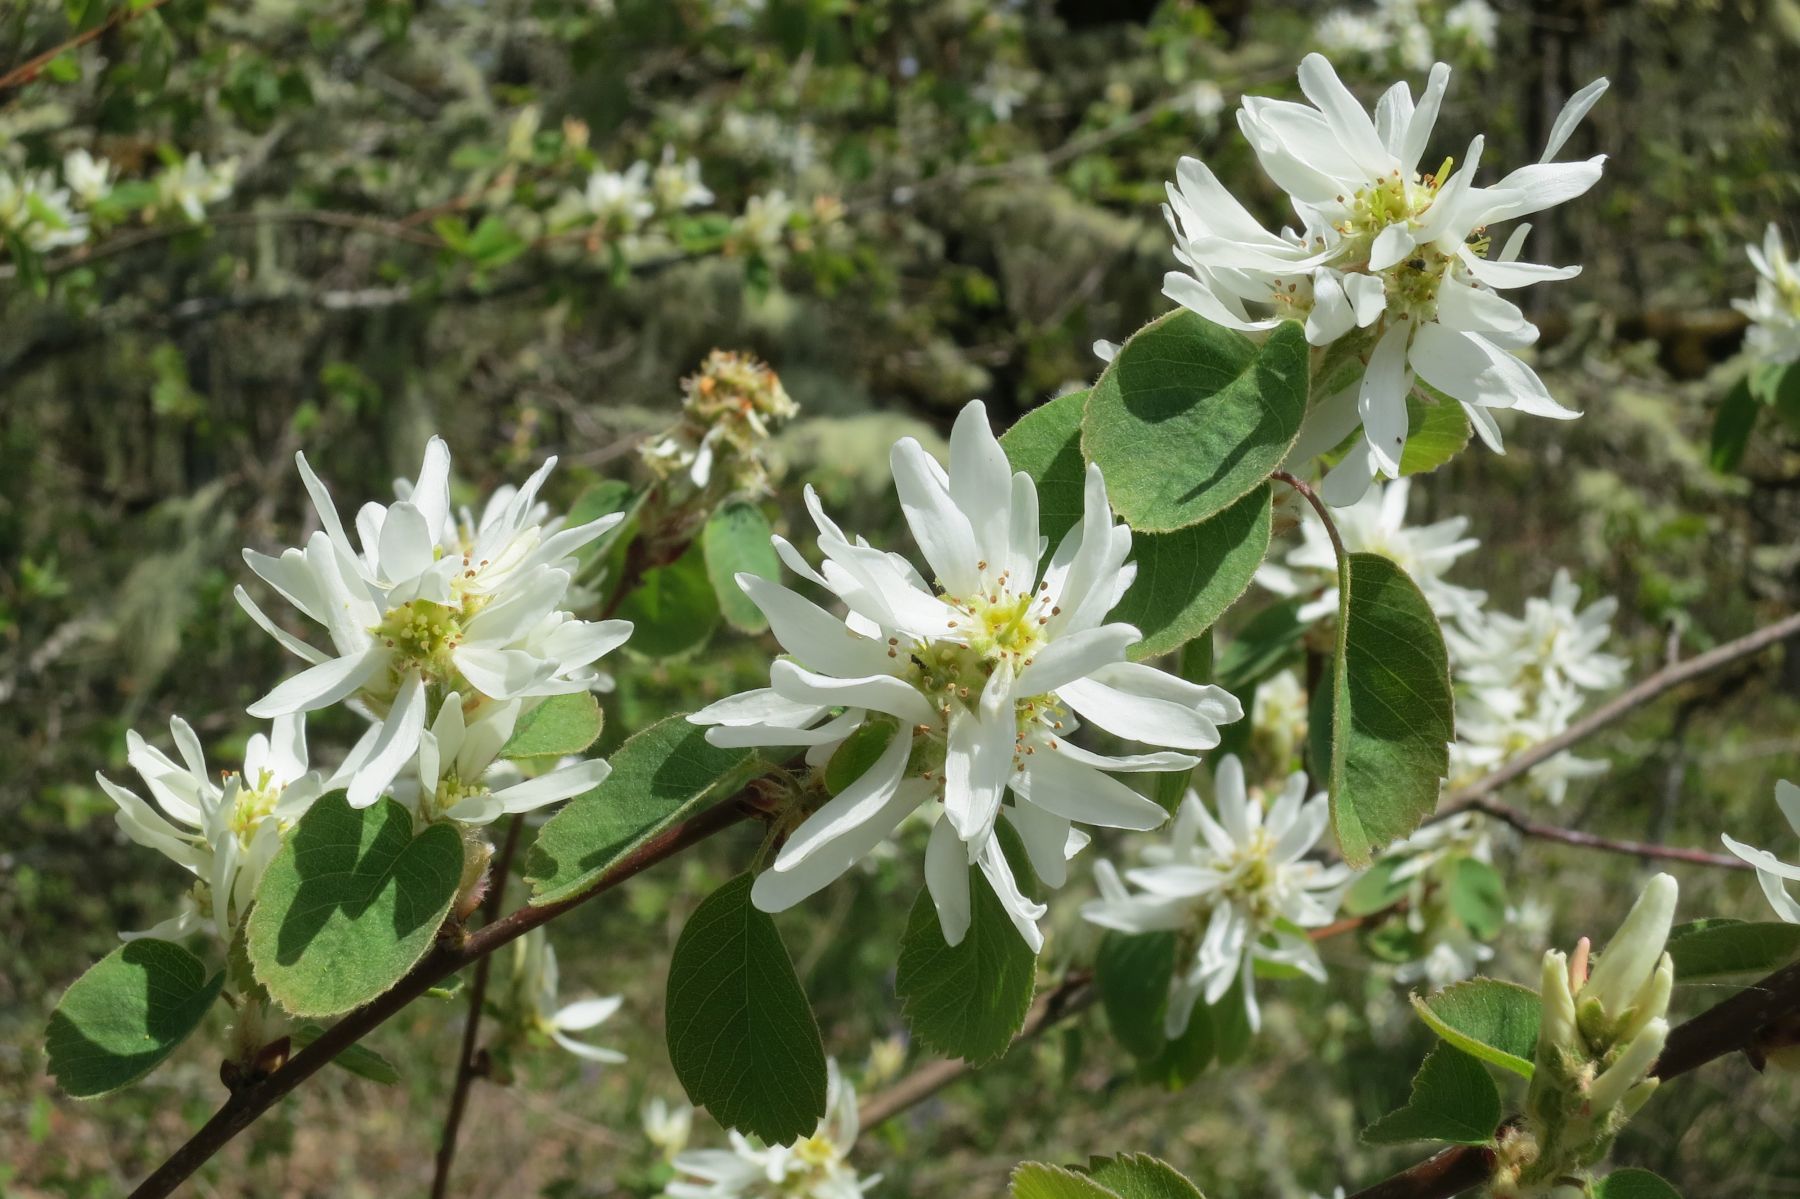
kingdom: Plantae
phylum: Tracheophyta
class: Magnoliopsida
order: Rosales
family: Rosaceae
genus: Amelanchier
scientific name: Amelanchier alnifolia
